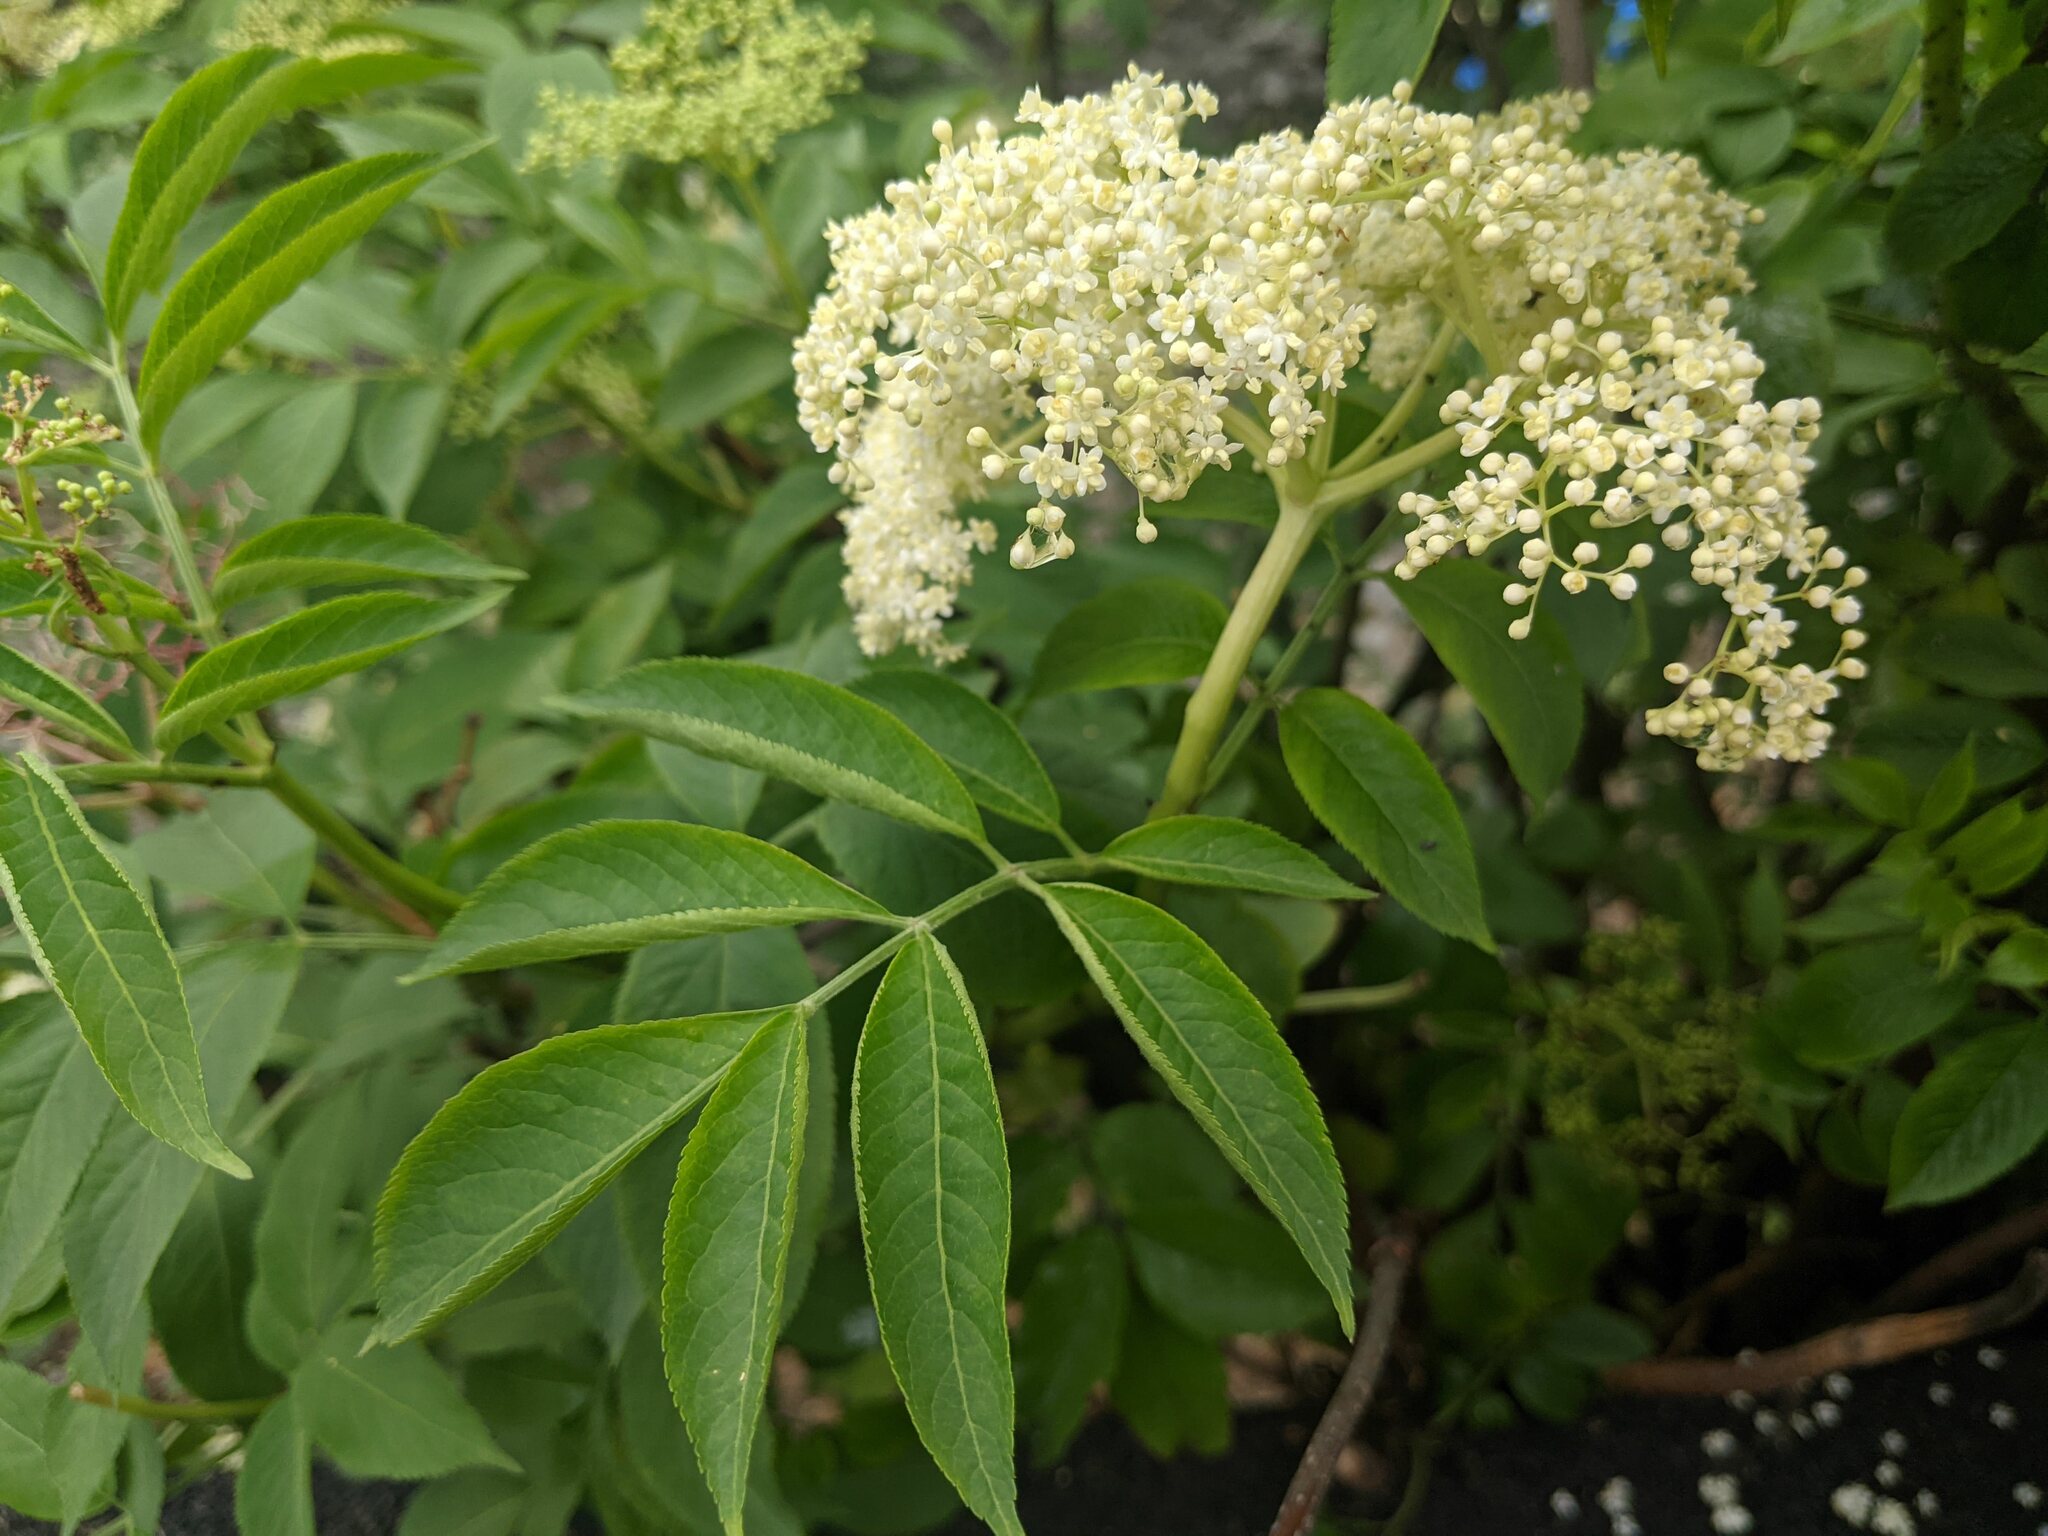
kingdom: Plantae
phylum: Tracheophyta
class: Magnoliopsida
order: Dipsacales
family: Viburnaceae
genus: Sambucus
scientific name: Sambucus nigra
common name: Elder
